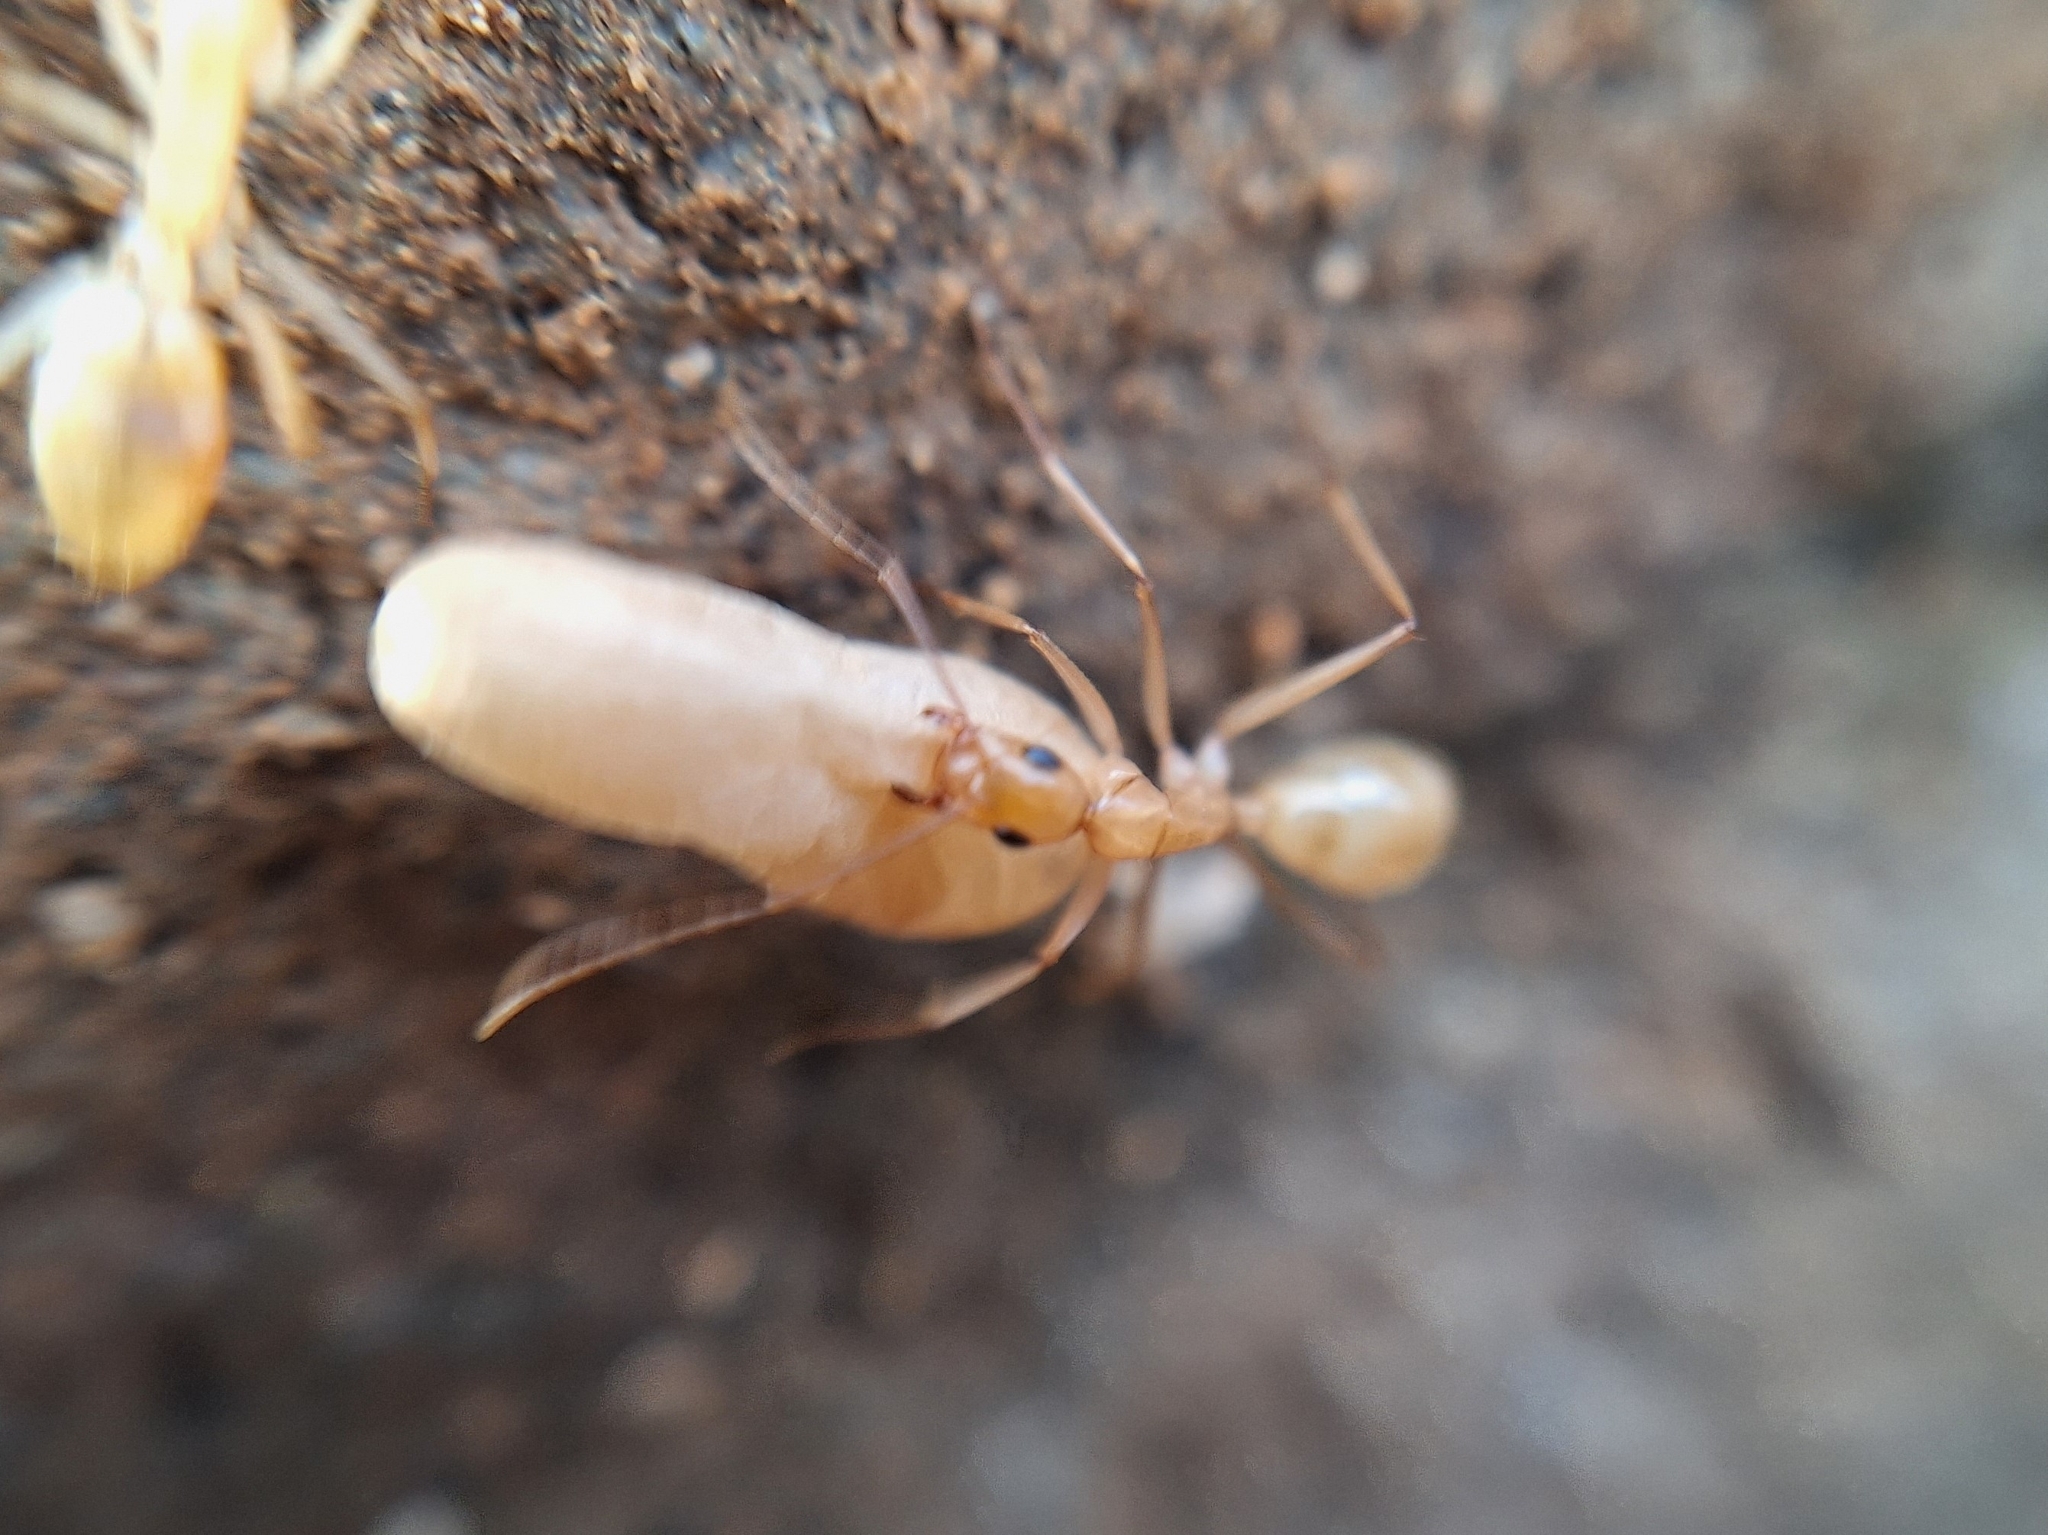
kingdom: Animalia
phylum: Arthropoda
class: Insecta
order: Hymenoptera
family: Formicidae
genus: Camponotus
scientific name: Camponotus festinatus
